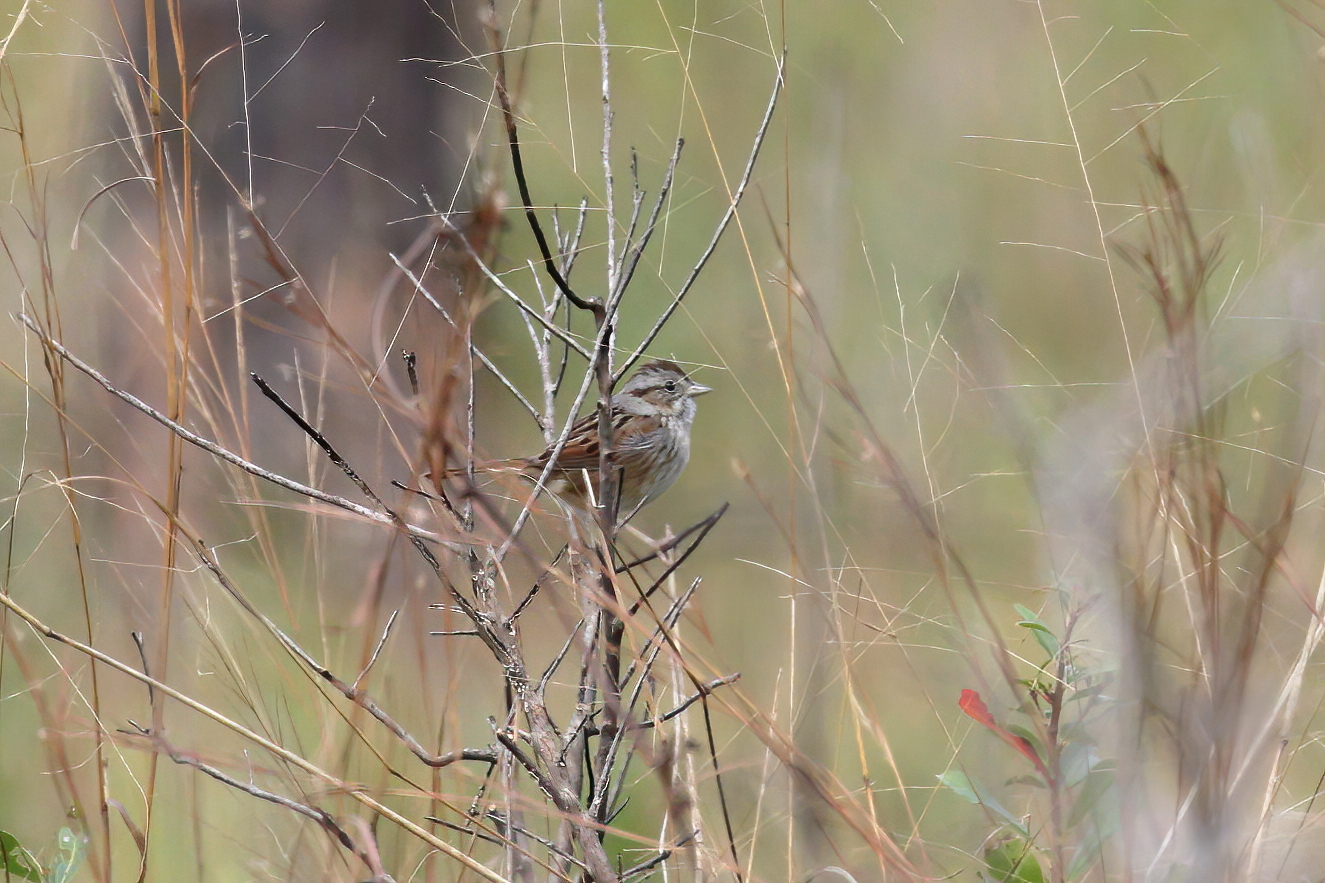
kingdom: Animalia
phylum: Chordata
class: Aves
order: Passeriformes
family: Passerellidae
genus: Melospiza
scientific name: Melospiza georgiana
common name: Swamp sparrow
